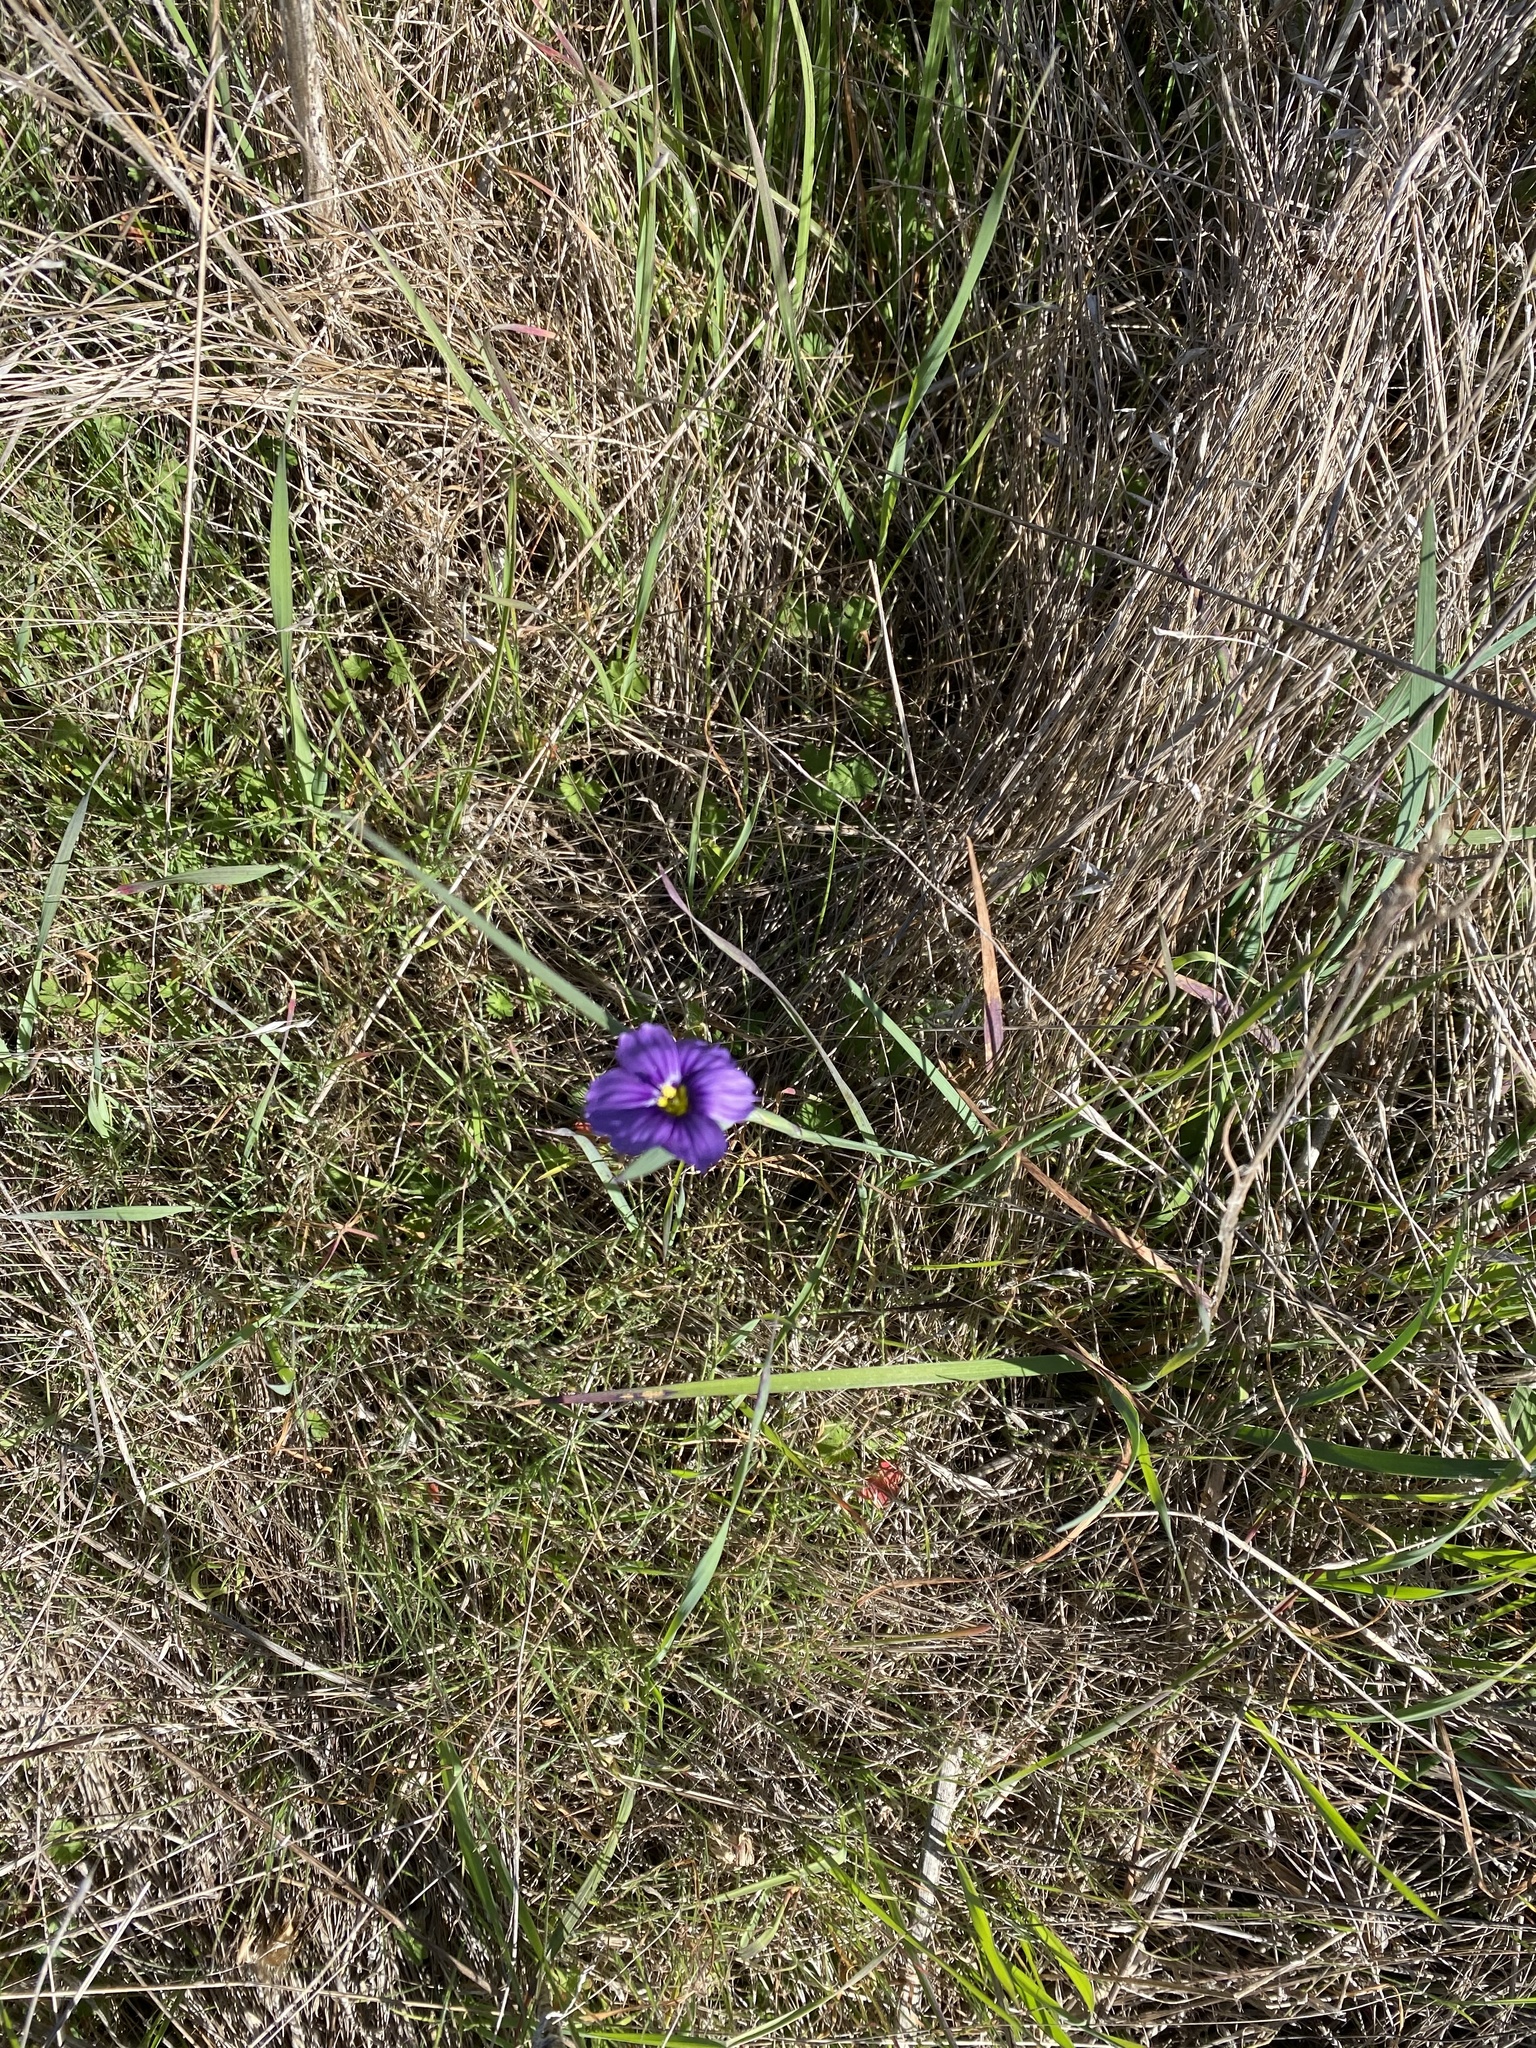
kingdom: Plantae
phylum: Tracheophyta
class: Liliopsida
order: Asparagales
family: Iridaceae
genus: Sisyrinchium
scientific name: Sisyrinchium bellum
